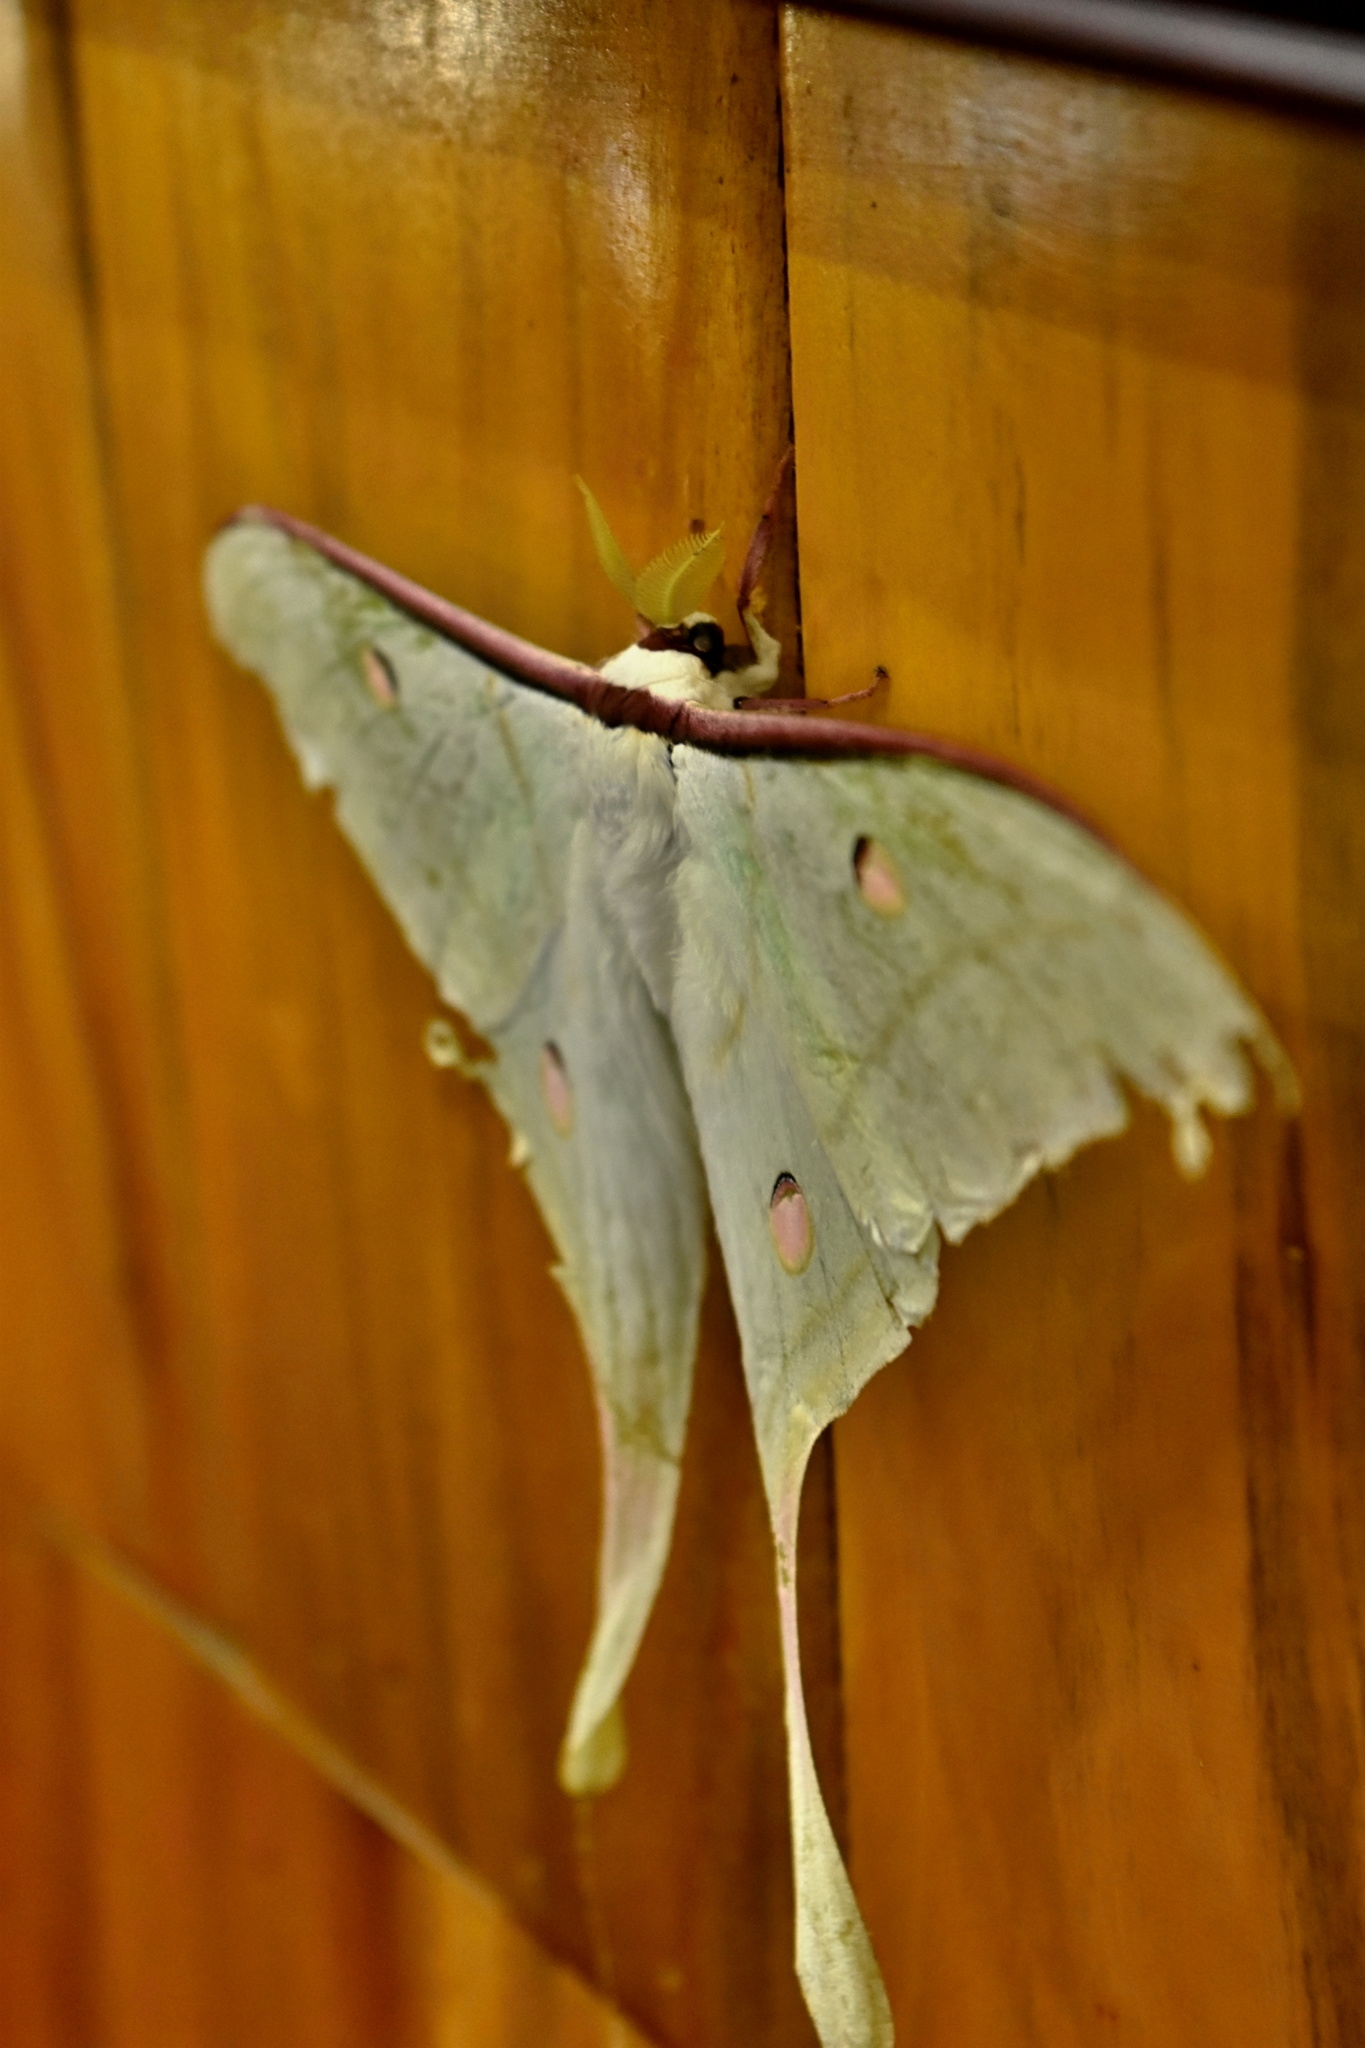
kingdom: Animalia
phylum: Arthropoda
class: Insecta
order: Lepidoptera
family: Saturniidae
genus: Actias
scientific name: Actias ningpoana
